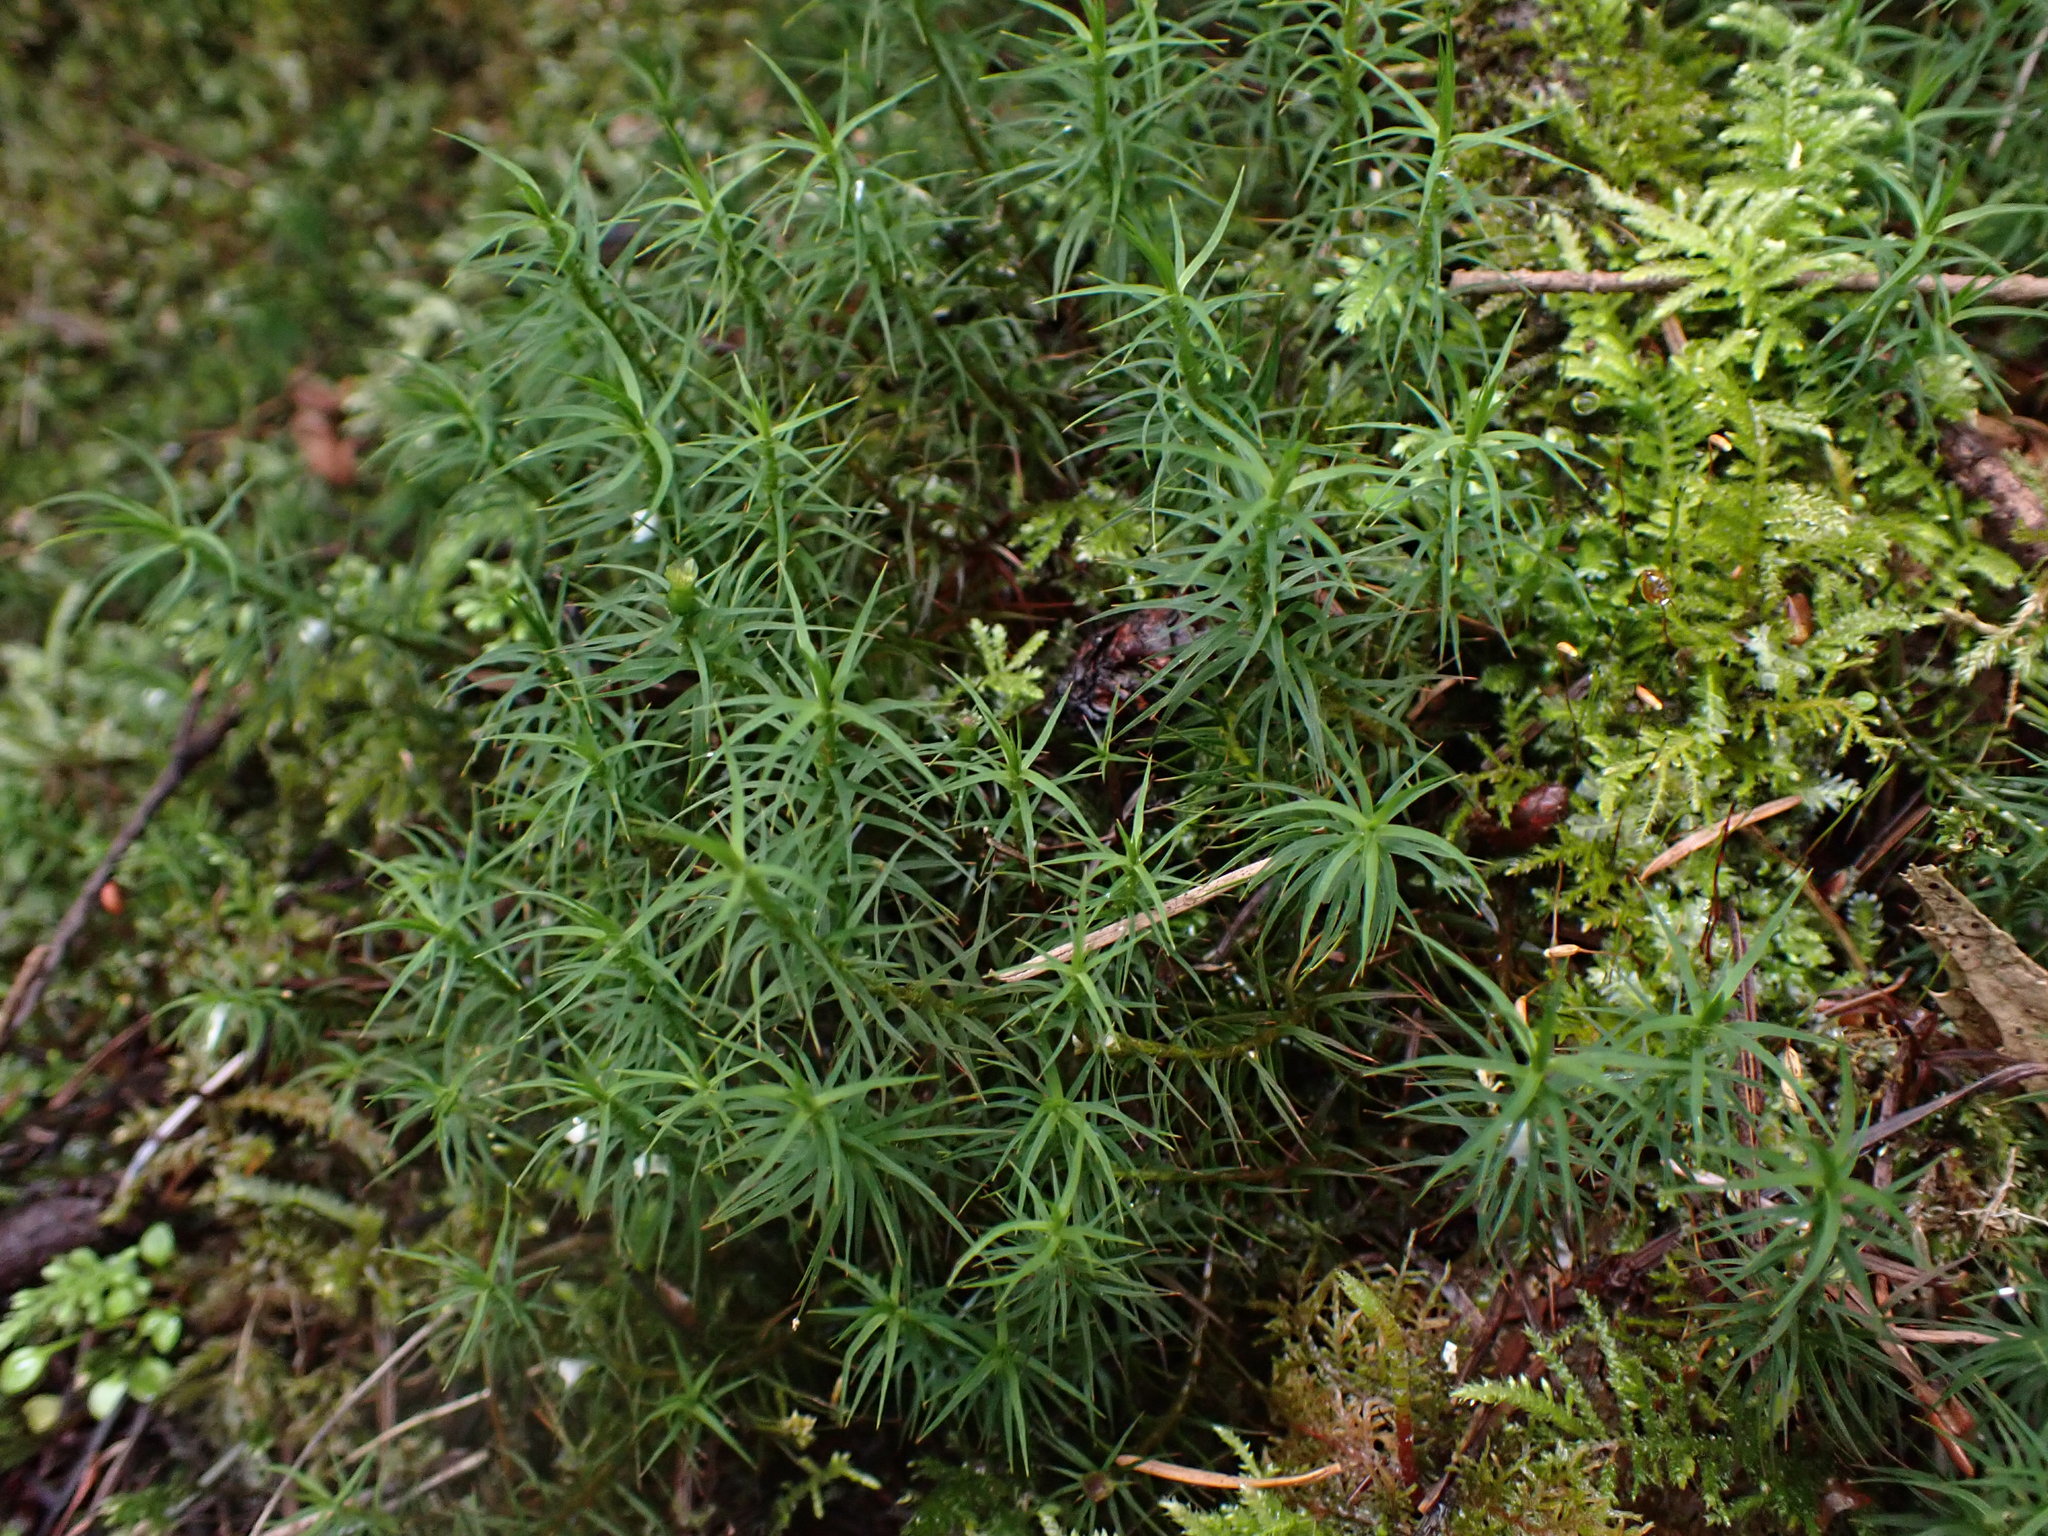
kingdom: Plantae
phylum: Bryophyta
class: Polytrichopsida
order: Polytrichales
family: Polytrichaceae
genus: Polytrichastrum
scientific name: Polytrichastrum alpinum
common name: Alpine haircap
